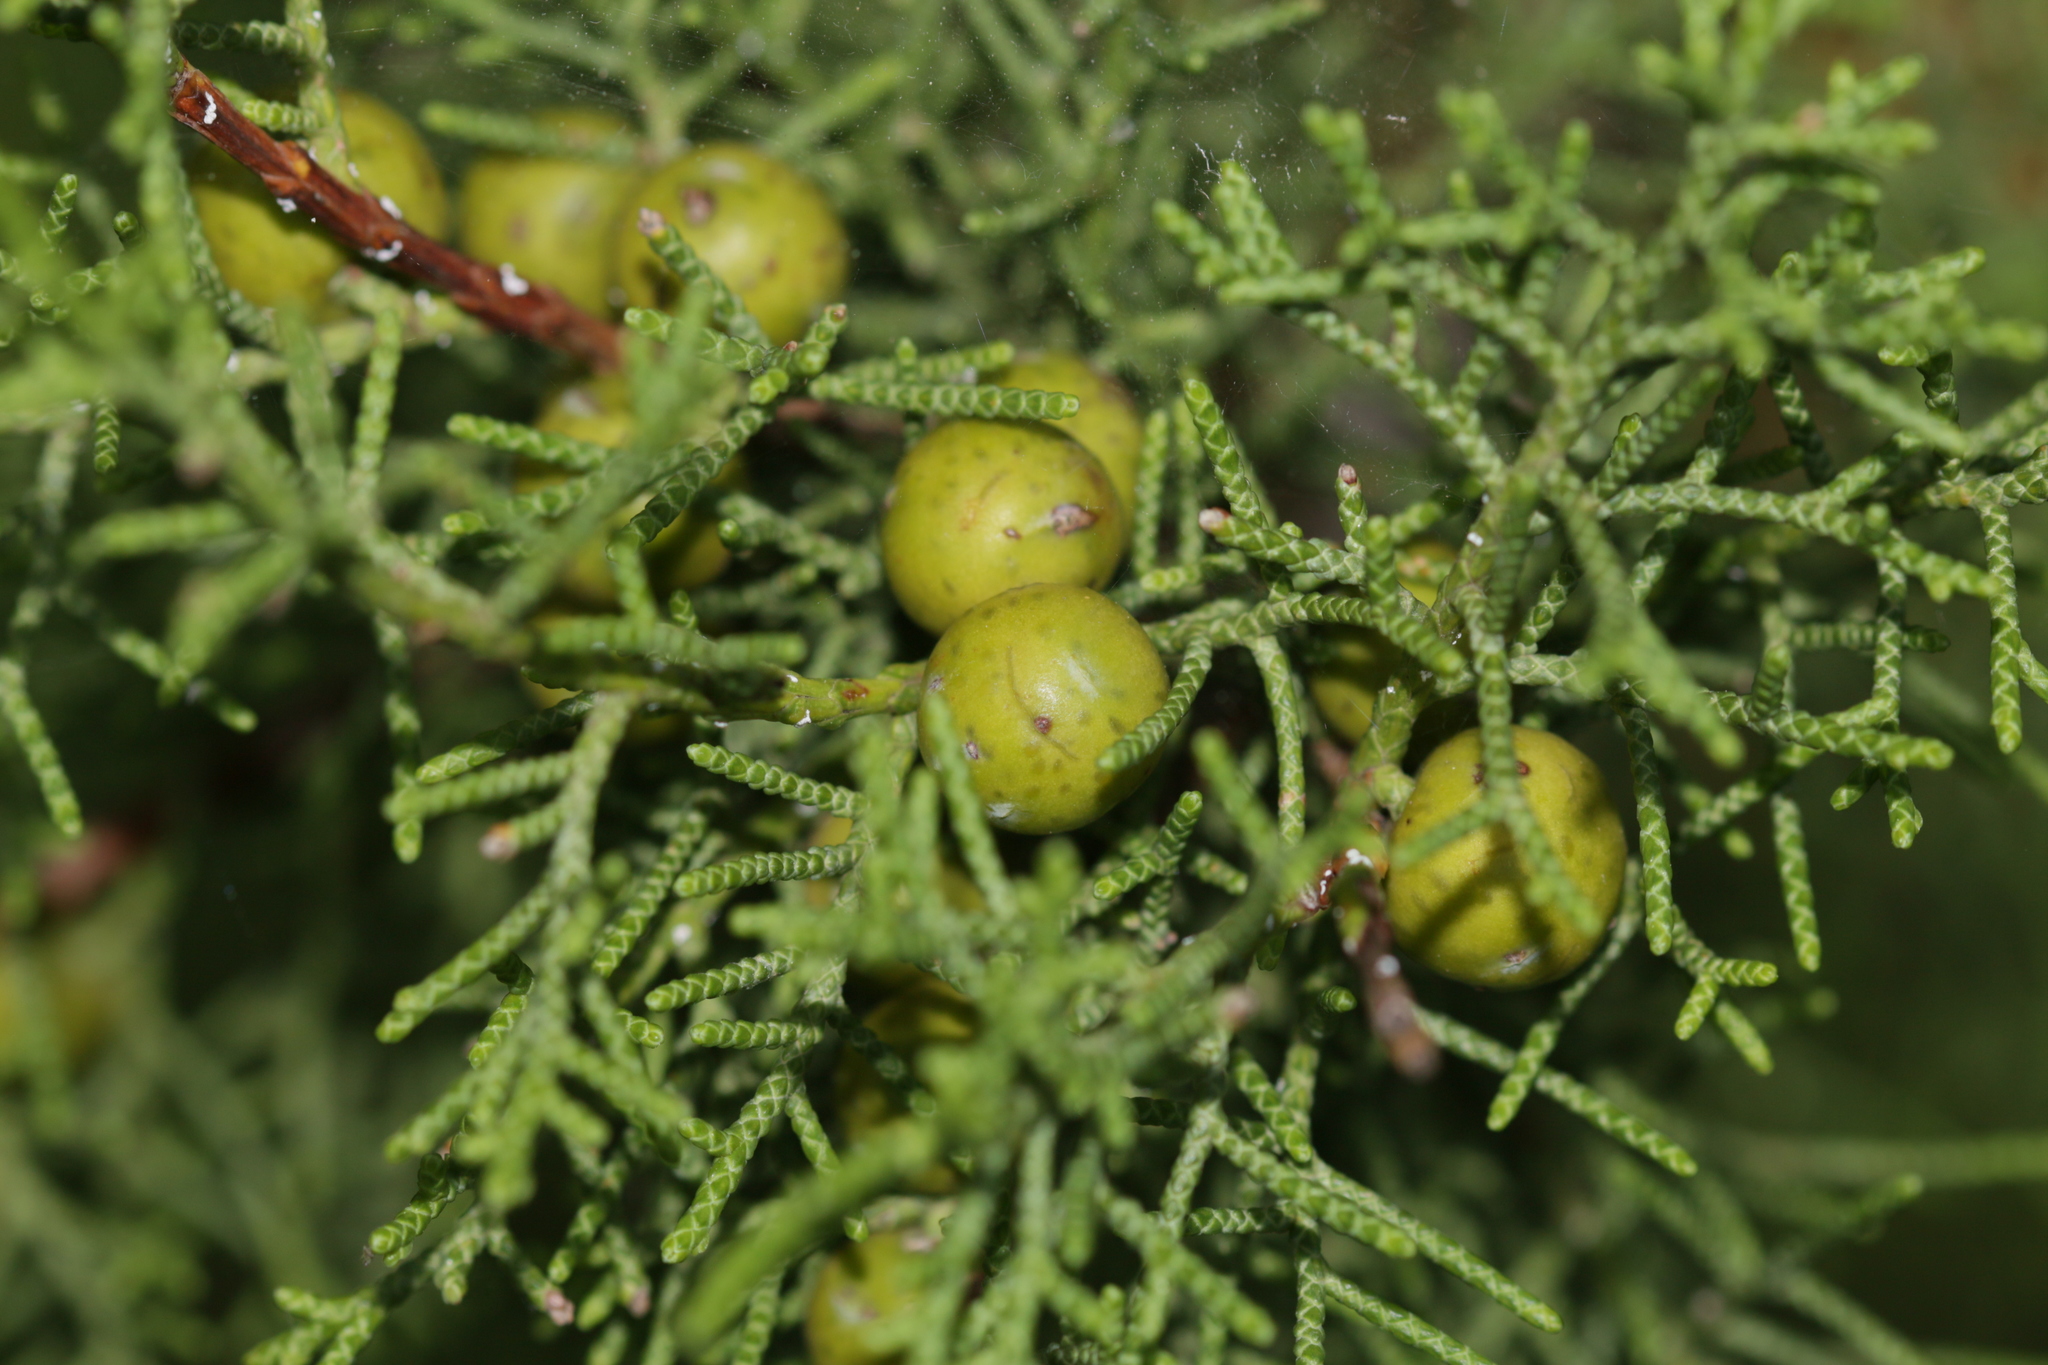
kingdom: Plantae
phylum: Tracheophyta
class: Pinopsida
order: Pinales
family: Cupressaceae
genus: Juniperus
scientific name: Juniperus phoenicea
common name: Phoenician juniper
